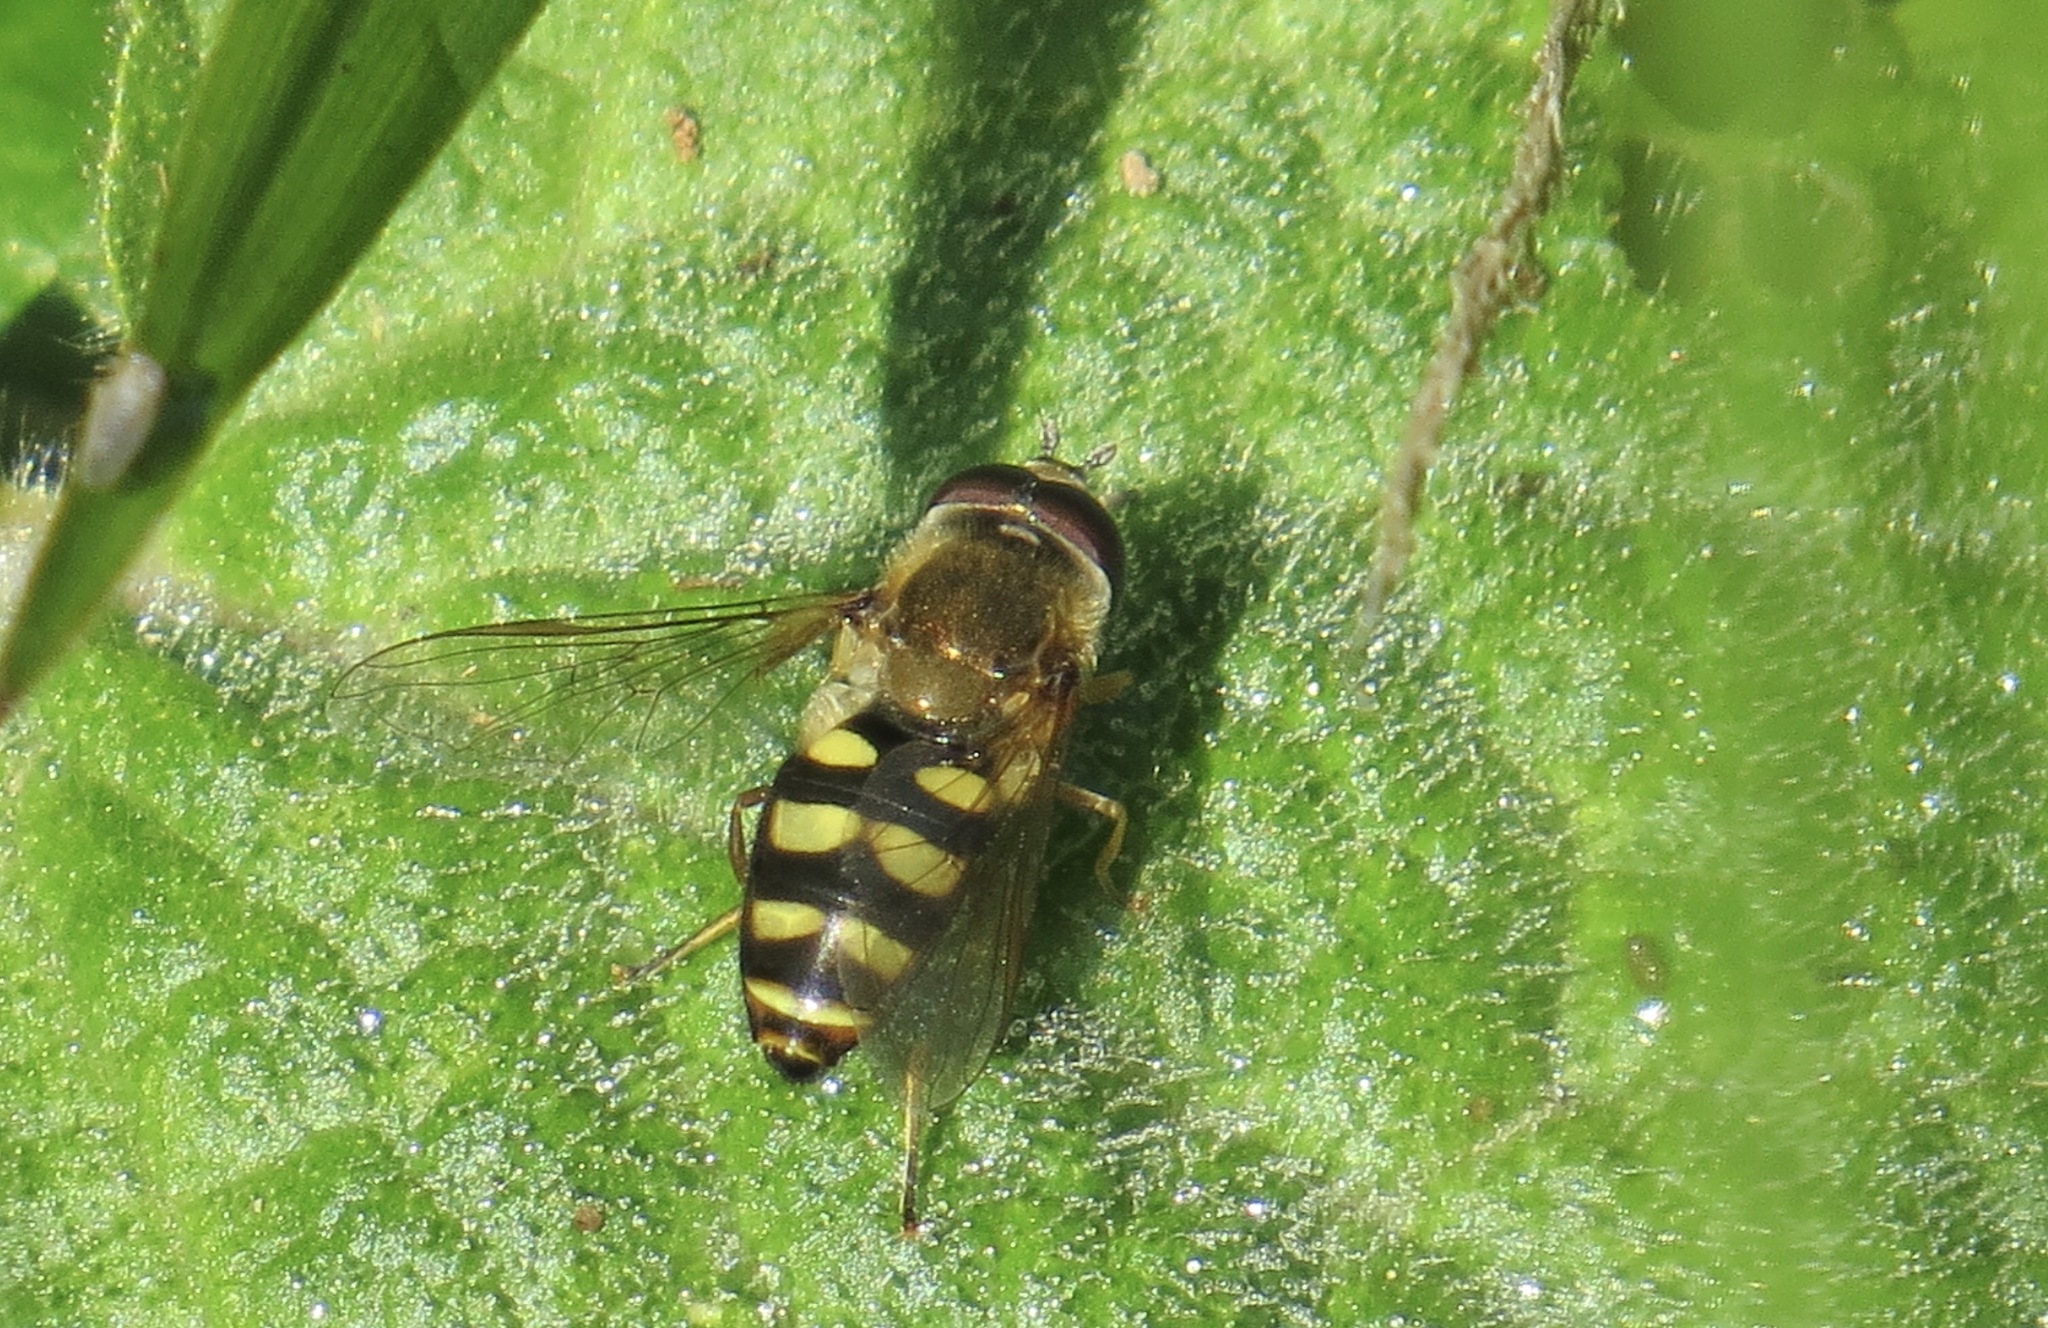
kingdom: Animalia
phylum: Arthropoda
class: Insecta
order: Diptera
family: Syrphidae
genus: Eupeodes
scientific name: Eupeodes fumipennis
